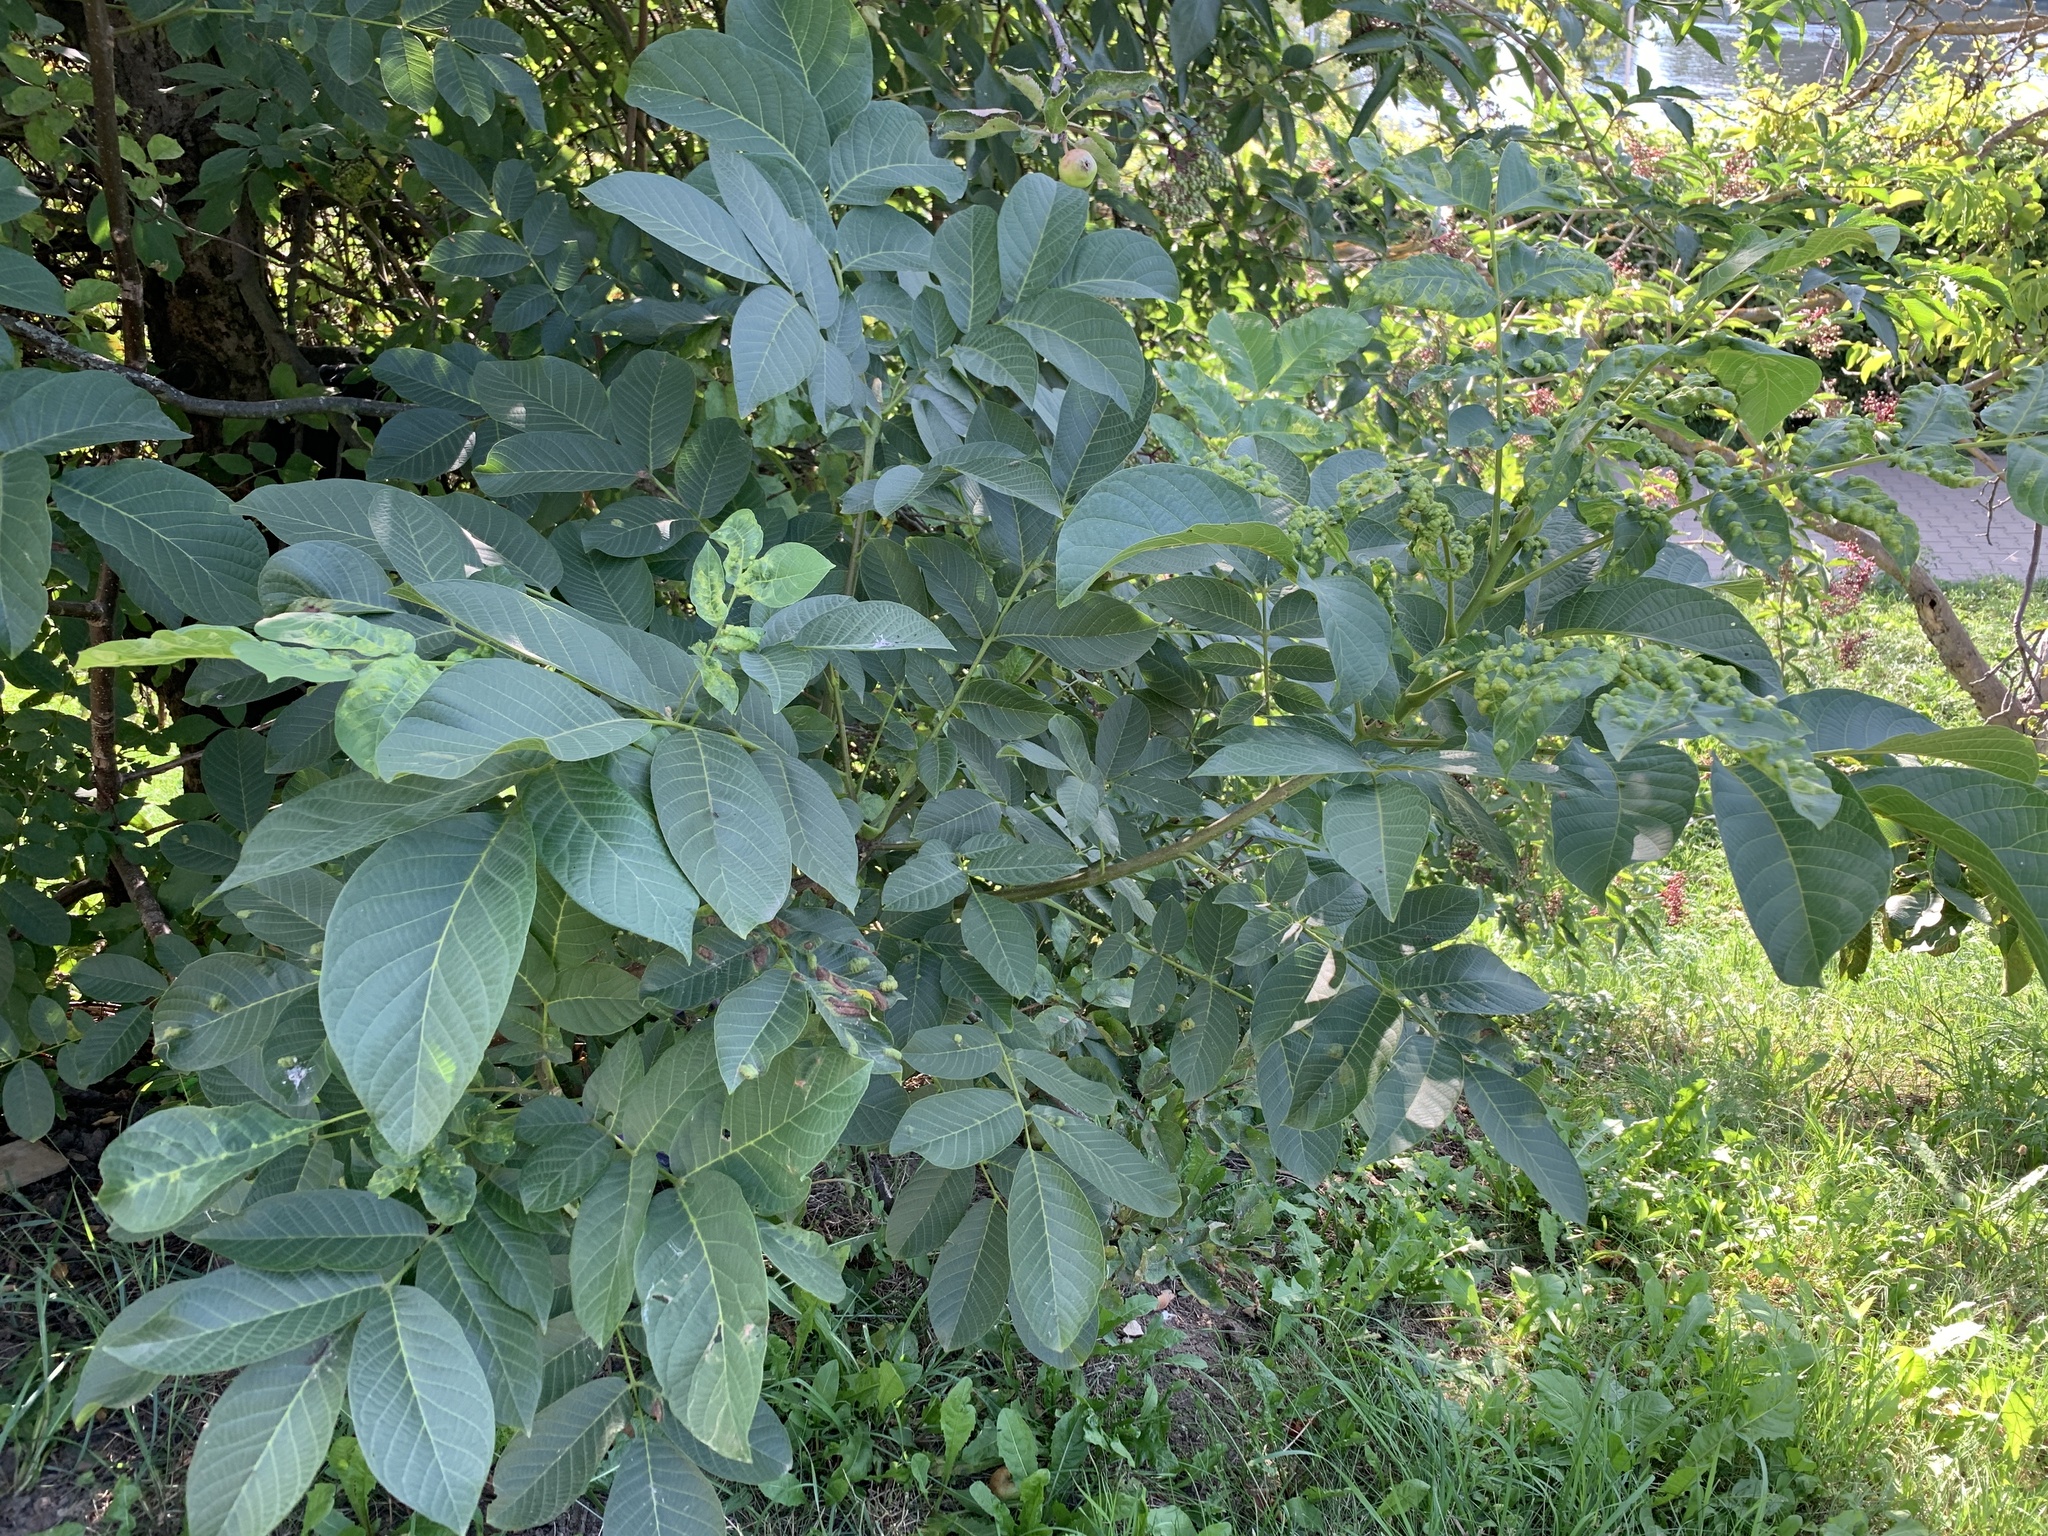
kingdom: Plantae
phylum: Tracheophyta
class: Magnoliopsida
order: Fagales
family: Juglandaceae
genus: Juglans
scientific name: Juglans regia
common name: Walnut
